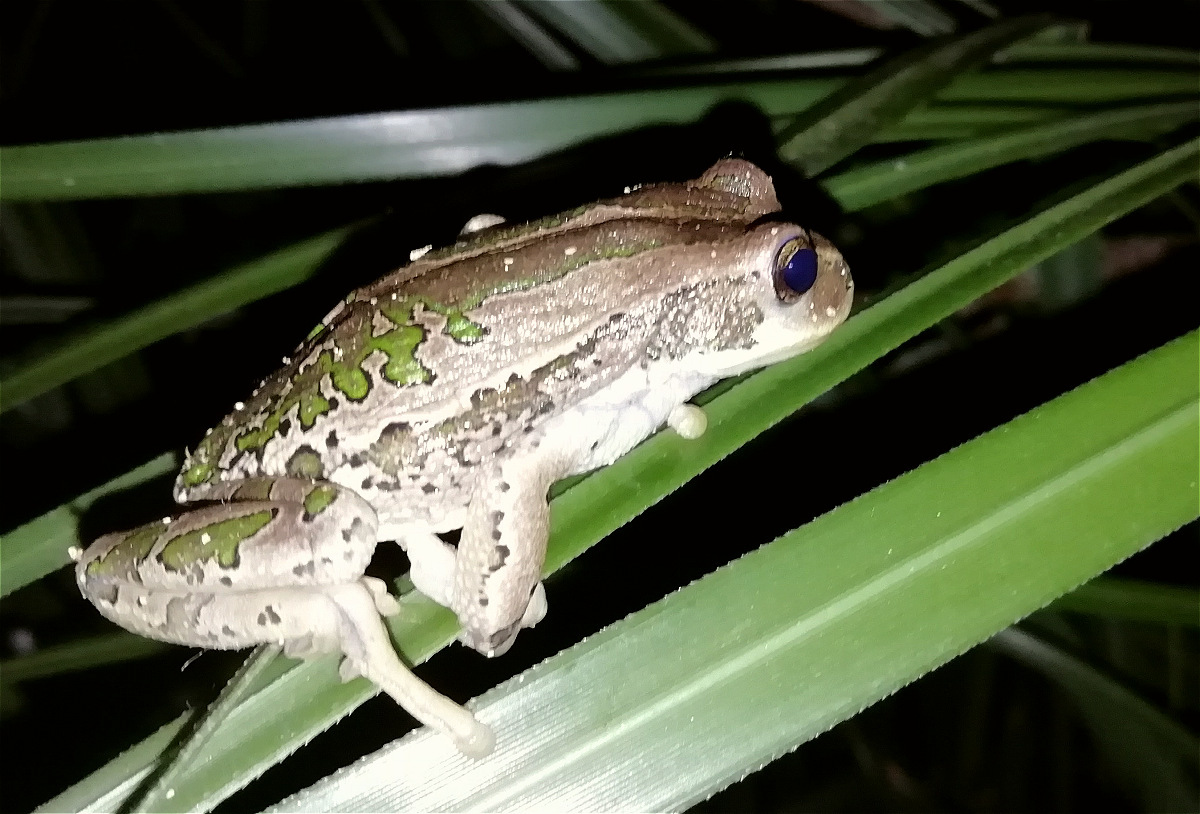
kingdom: Animalia
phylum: Chordata
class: Amphibia
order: Anura
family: Hemiphractidae
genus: Gastrotheca
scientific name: Gastrotheca cuencana
